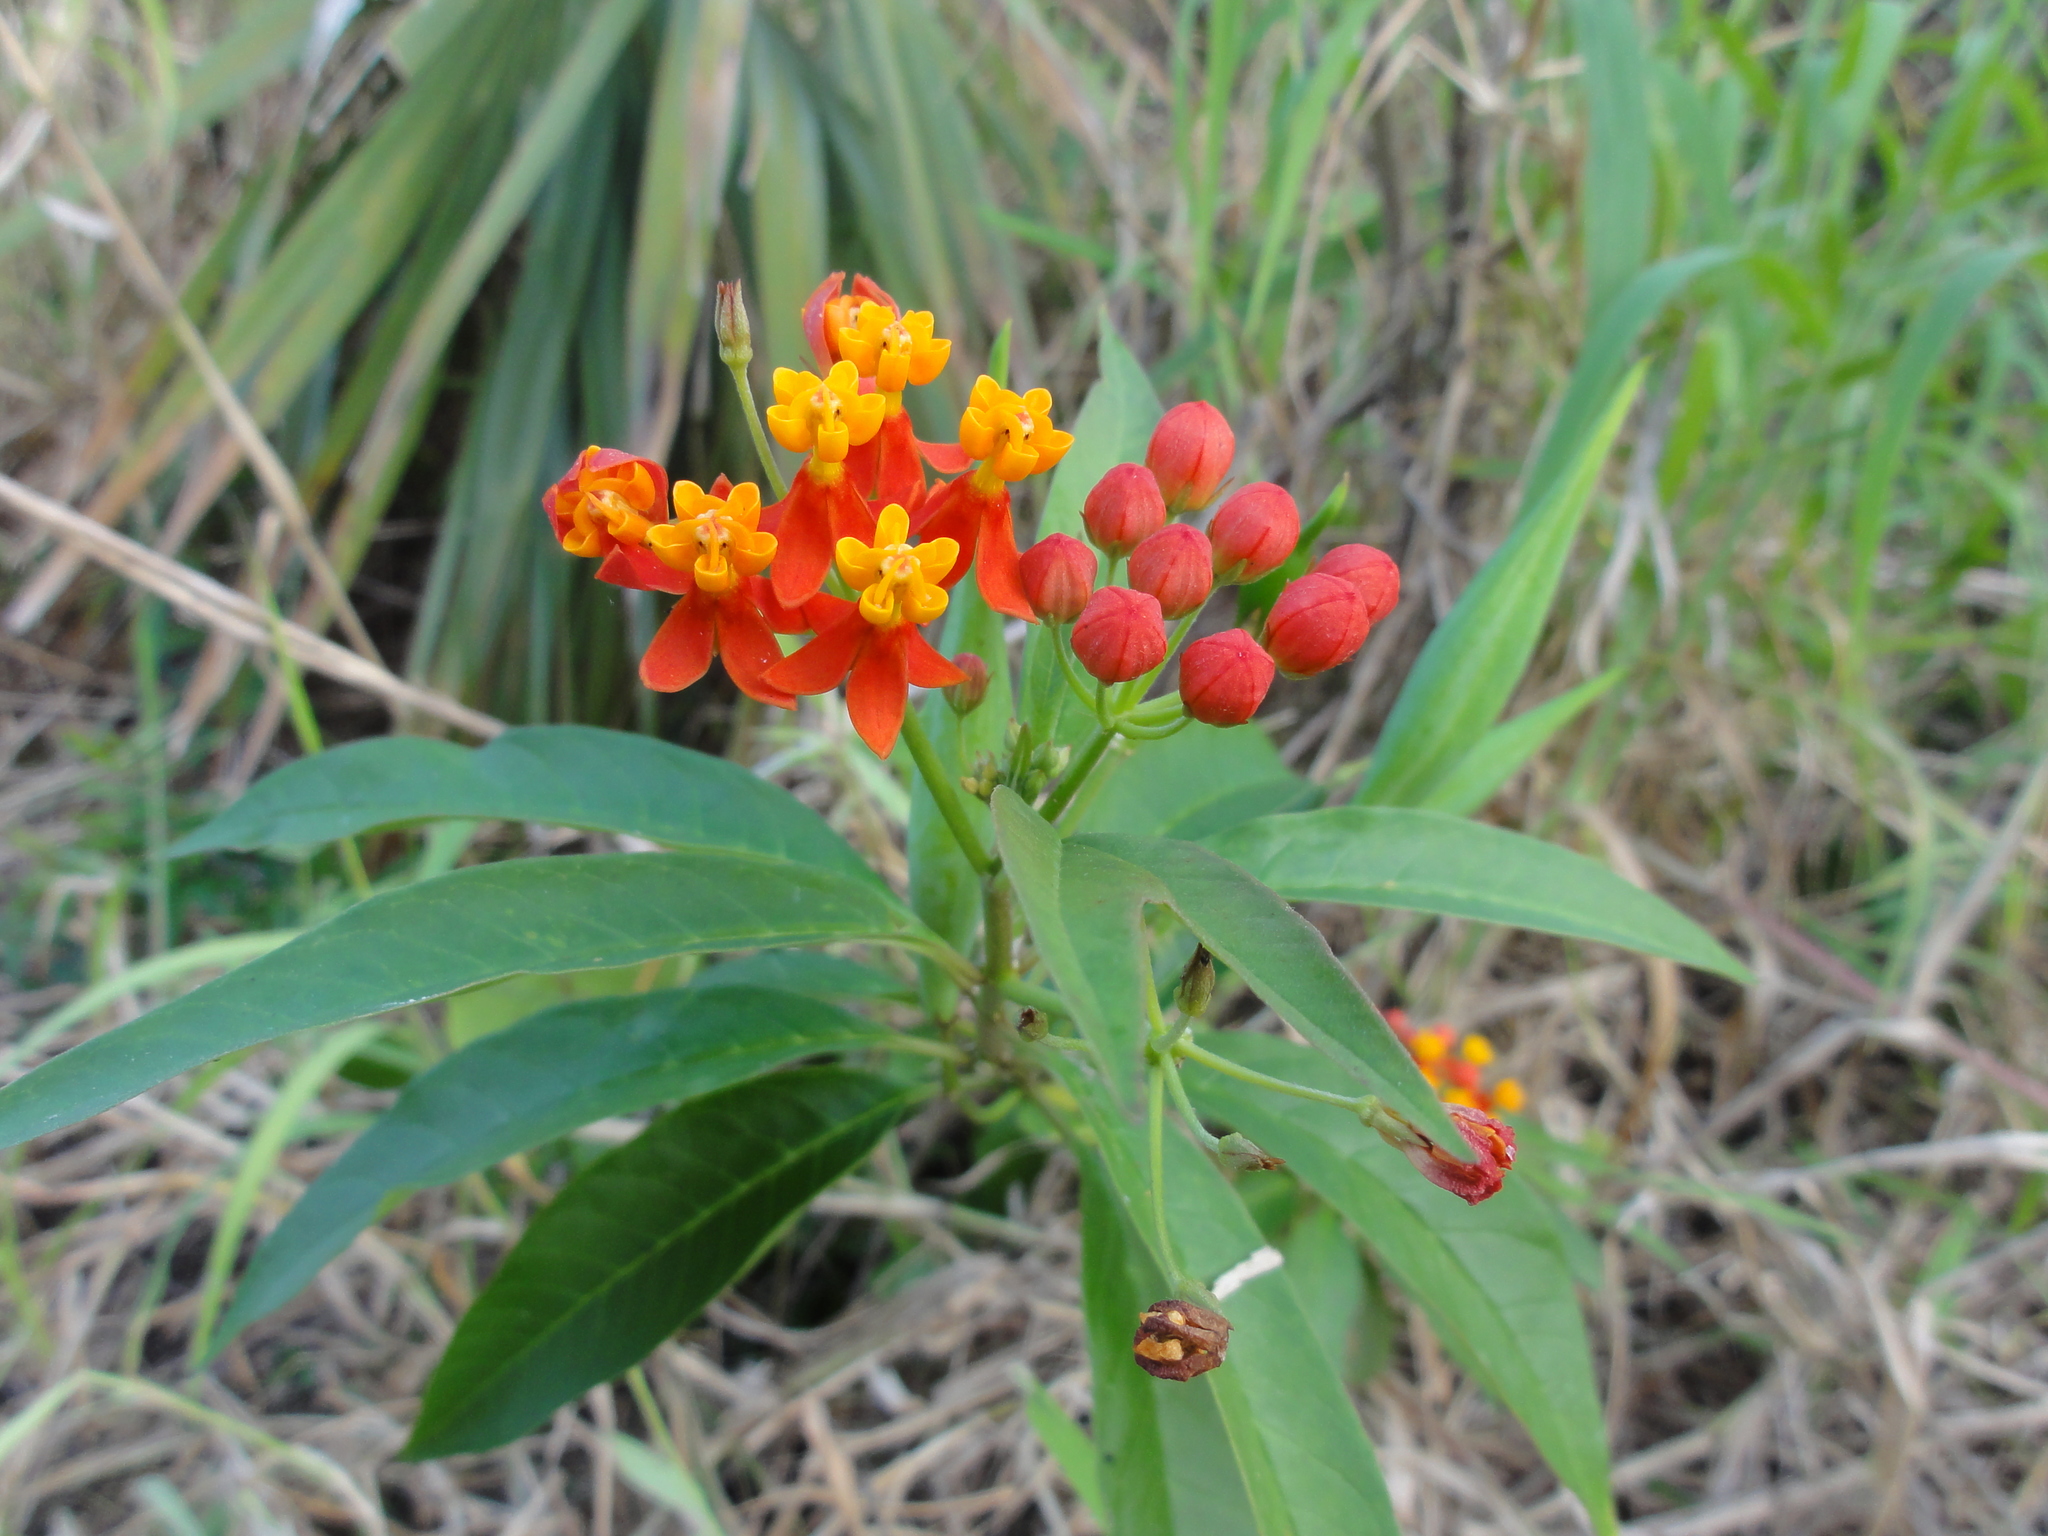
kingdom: Plantae
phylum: Tracheophyta
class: Magnoliopsida
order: Gentianales
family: Apocynaceae
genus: Asclepias
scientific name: Asclepias curassavica
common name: Bloodflower
